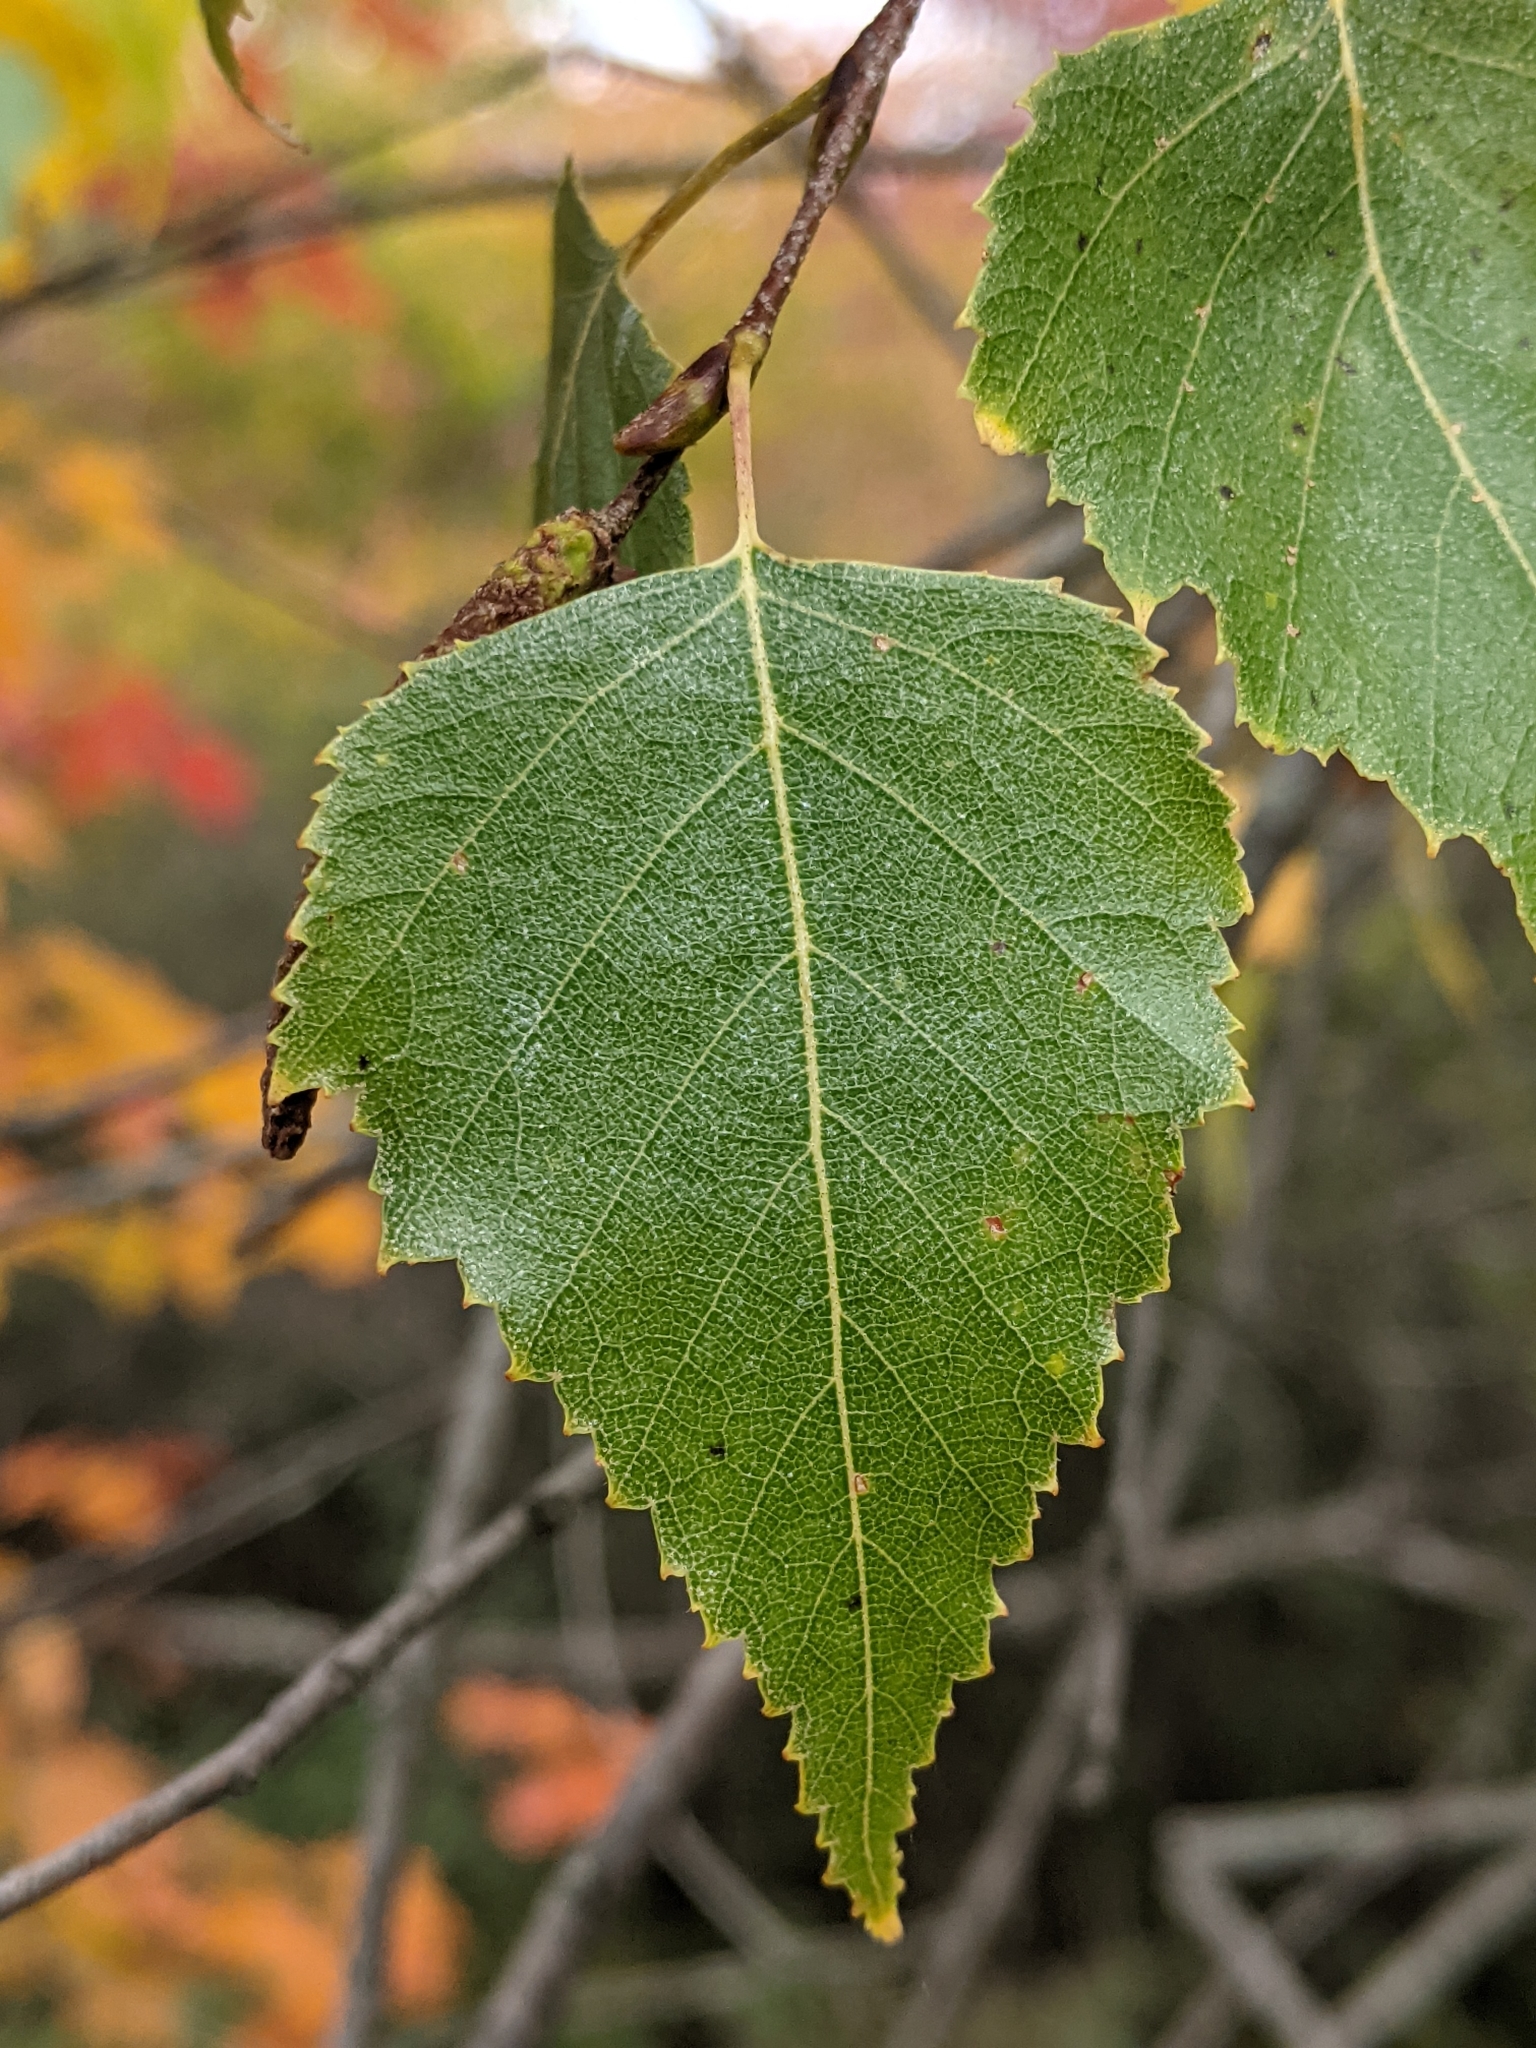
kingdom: Plantae
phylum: Tracheophyta
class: Magnoliopsida
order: Fagales
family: Betulaceae
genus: Betula
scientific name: Betula populifolia
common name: Fire birch
